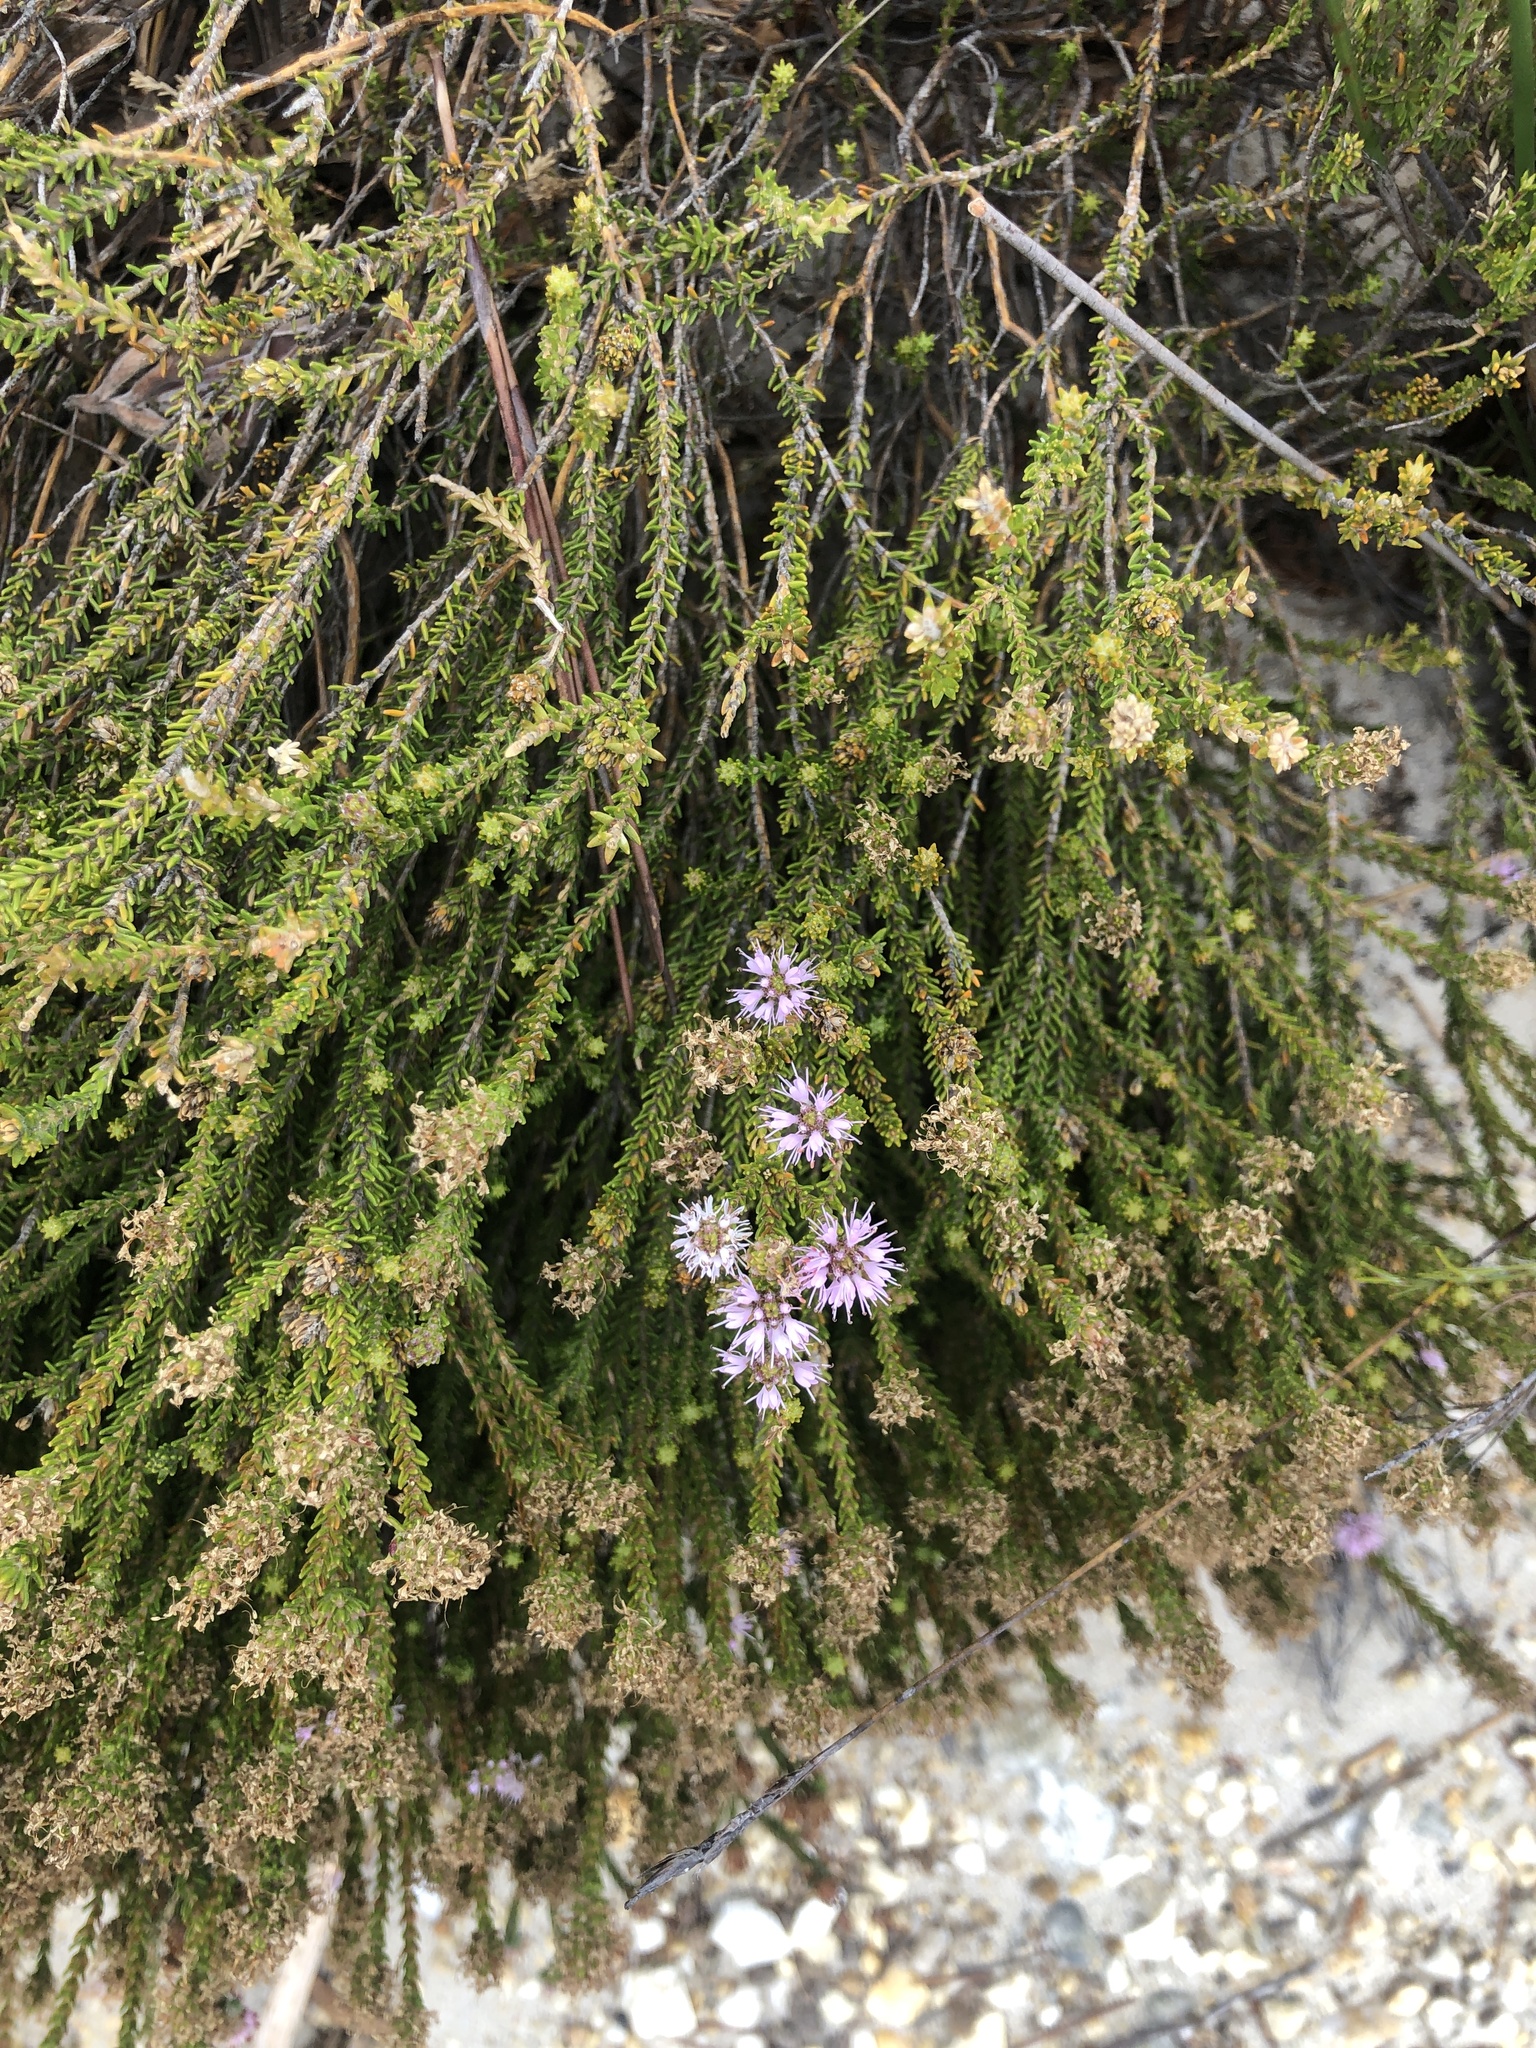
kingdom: Plantae
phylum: Tracheophyta
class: Magnoliopsida
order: Sapindales
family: Rutaceae
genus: Agathosma
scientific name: Agathosma cerefolia
